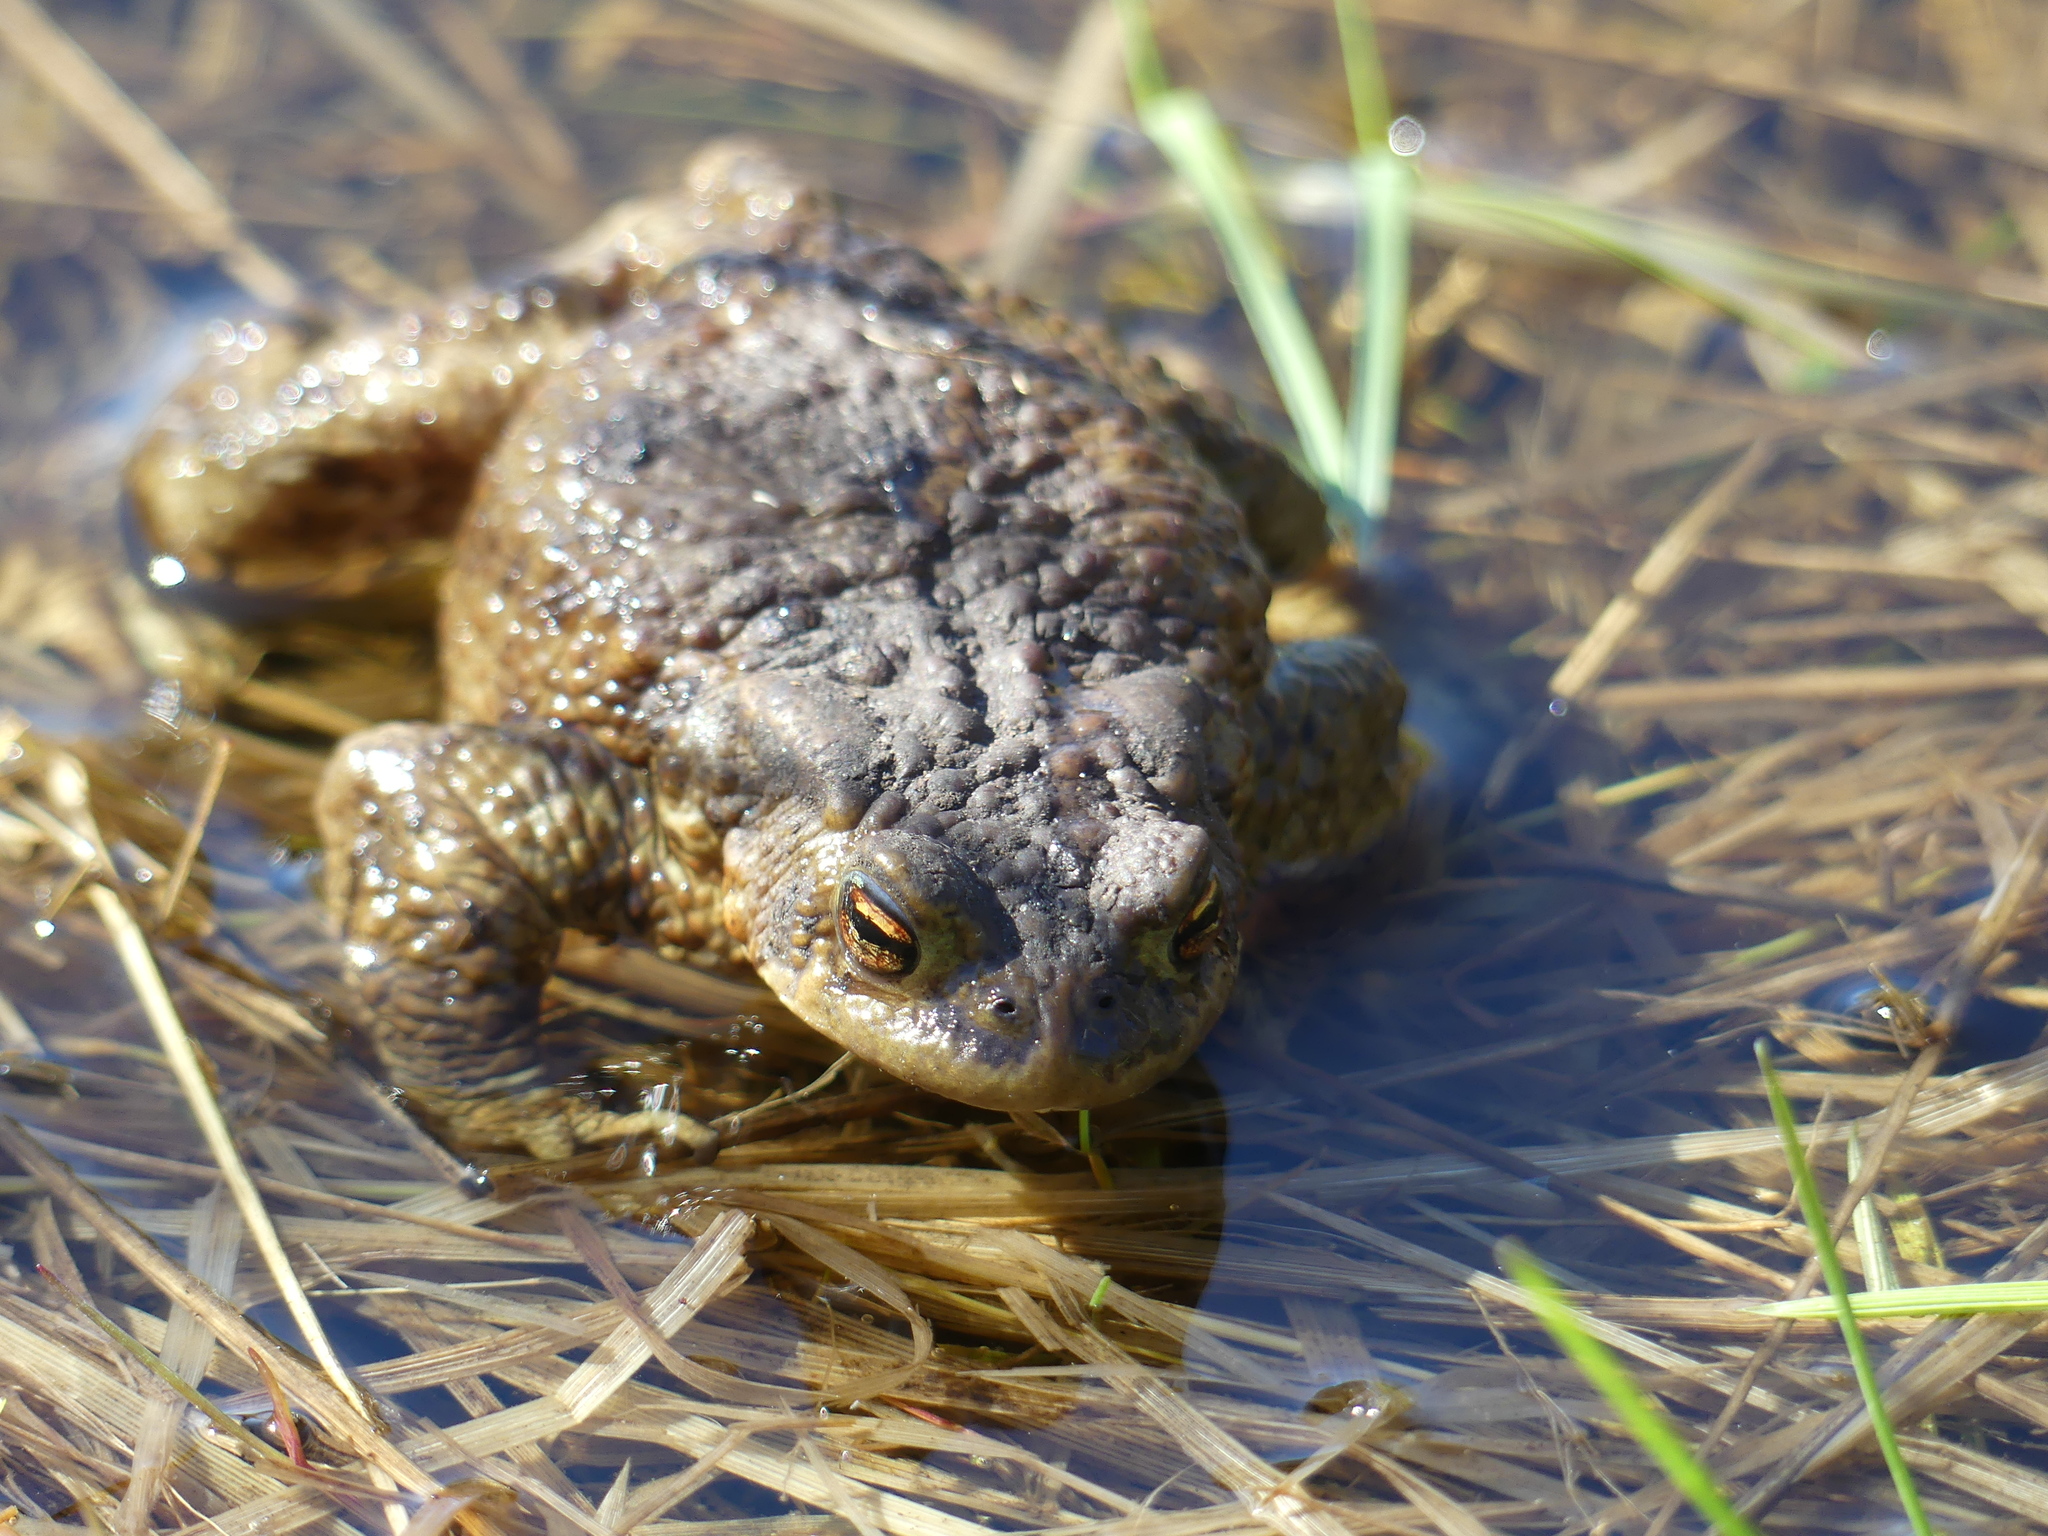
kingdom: Animalia
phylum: Chordata
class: Amphibia
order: Anura
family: Bufonidae
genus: Bufo
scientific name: Bufo bufo
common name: Common toad
